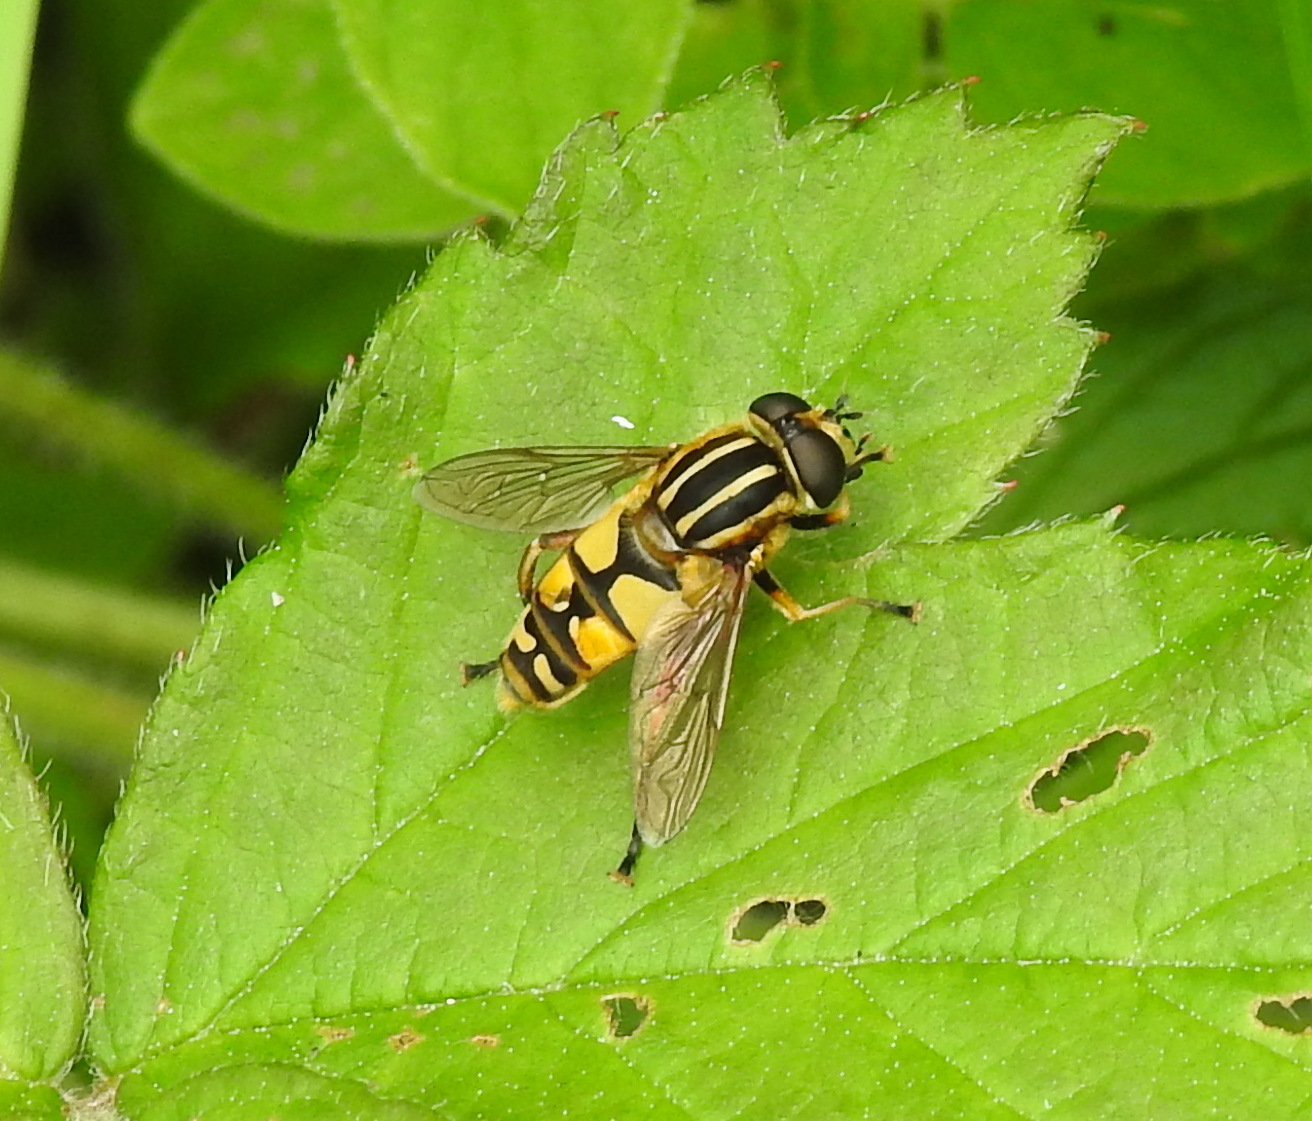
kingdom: Animalia
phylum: Arthropoda
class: Insecta
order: Diptera
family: Syrphidae
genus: Helophilus
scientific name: Helophilus pendulus
